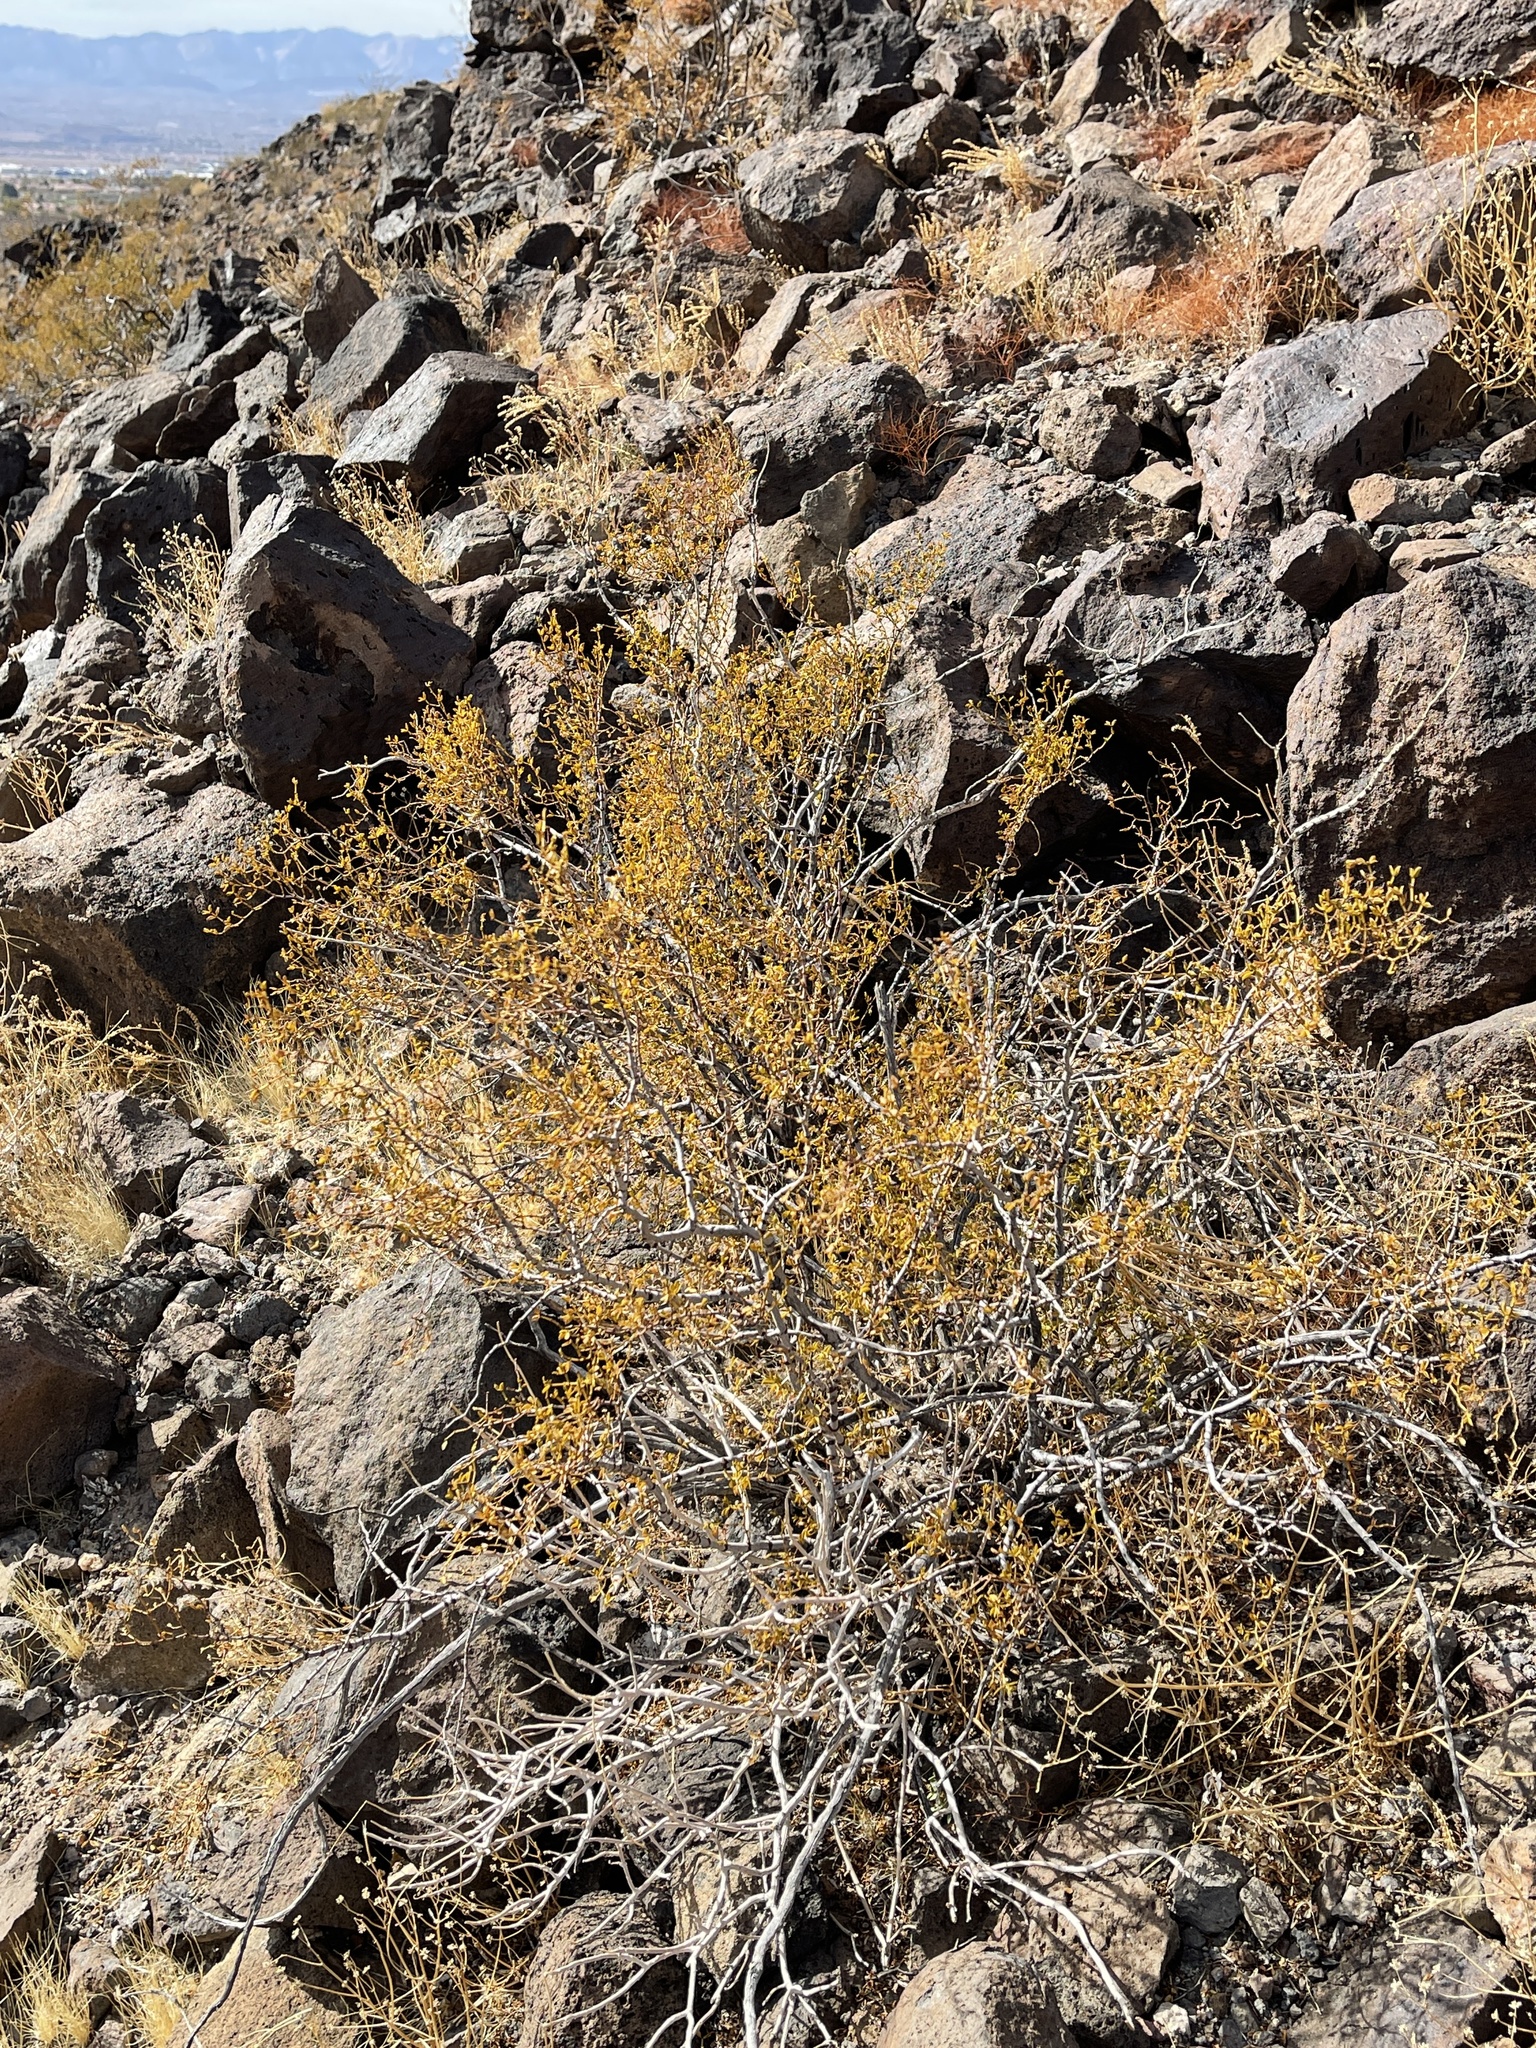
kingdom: Plantae
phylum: Tracheophyta
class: Magnoliopsida
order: Zygophyllales
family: Zygophyllaceae
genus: Larrea
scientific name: Larrea tridentata
